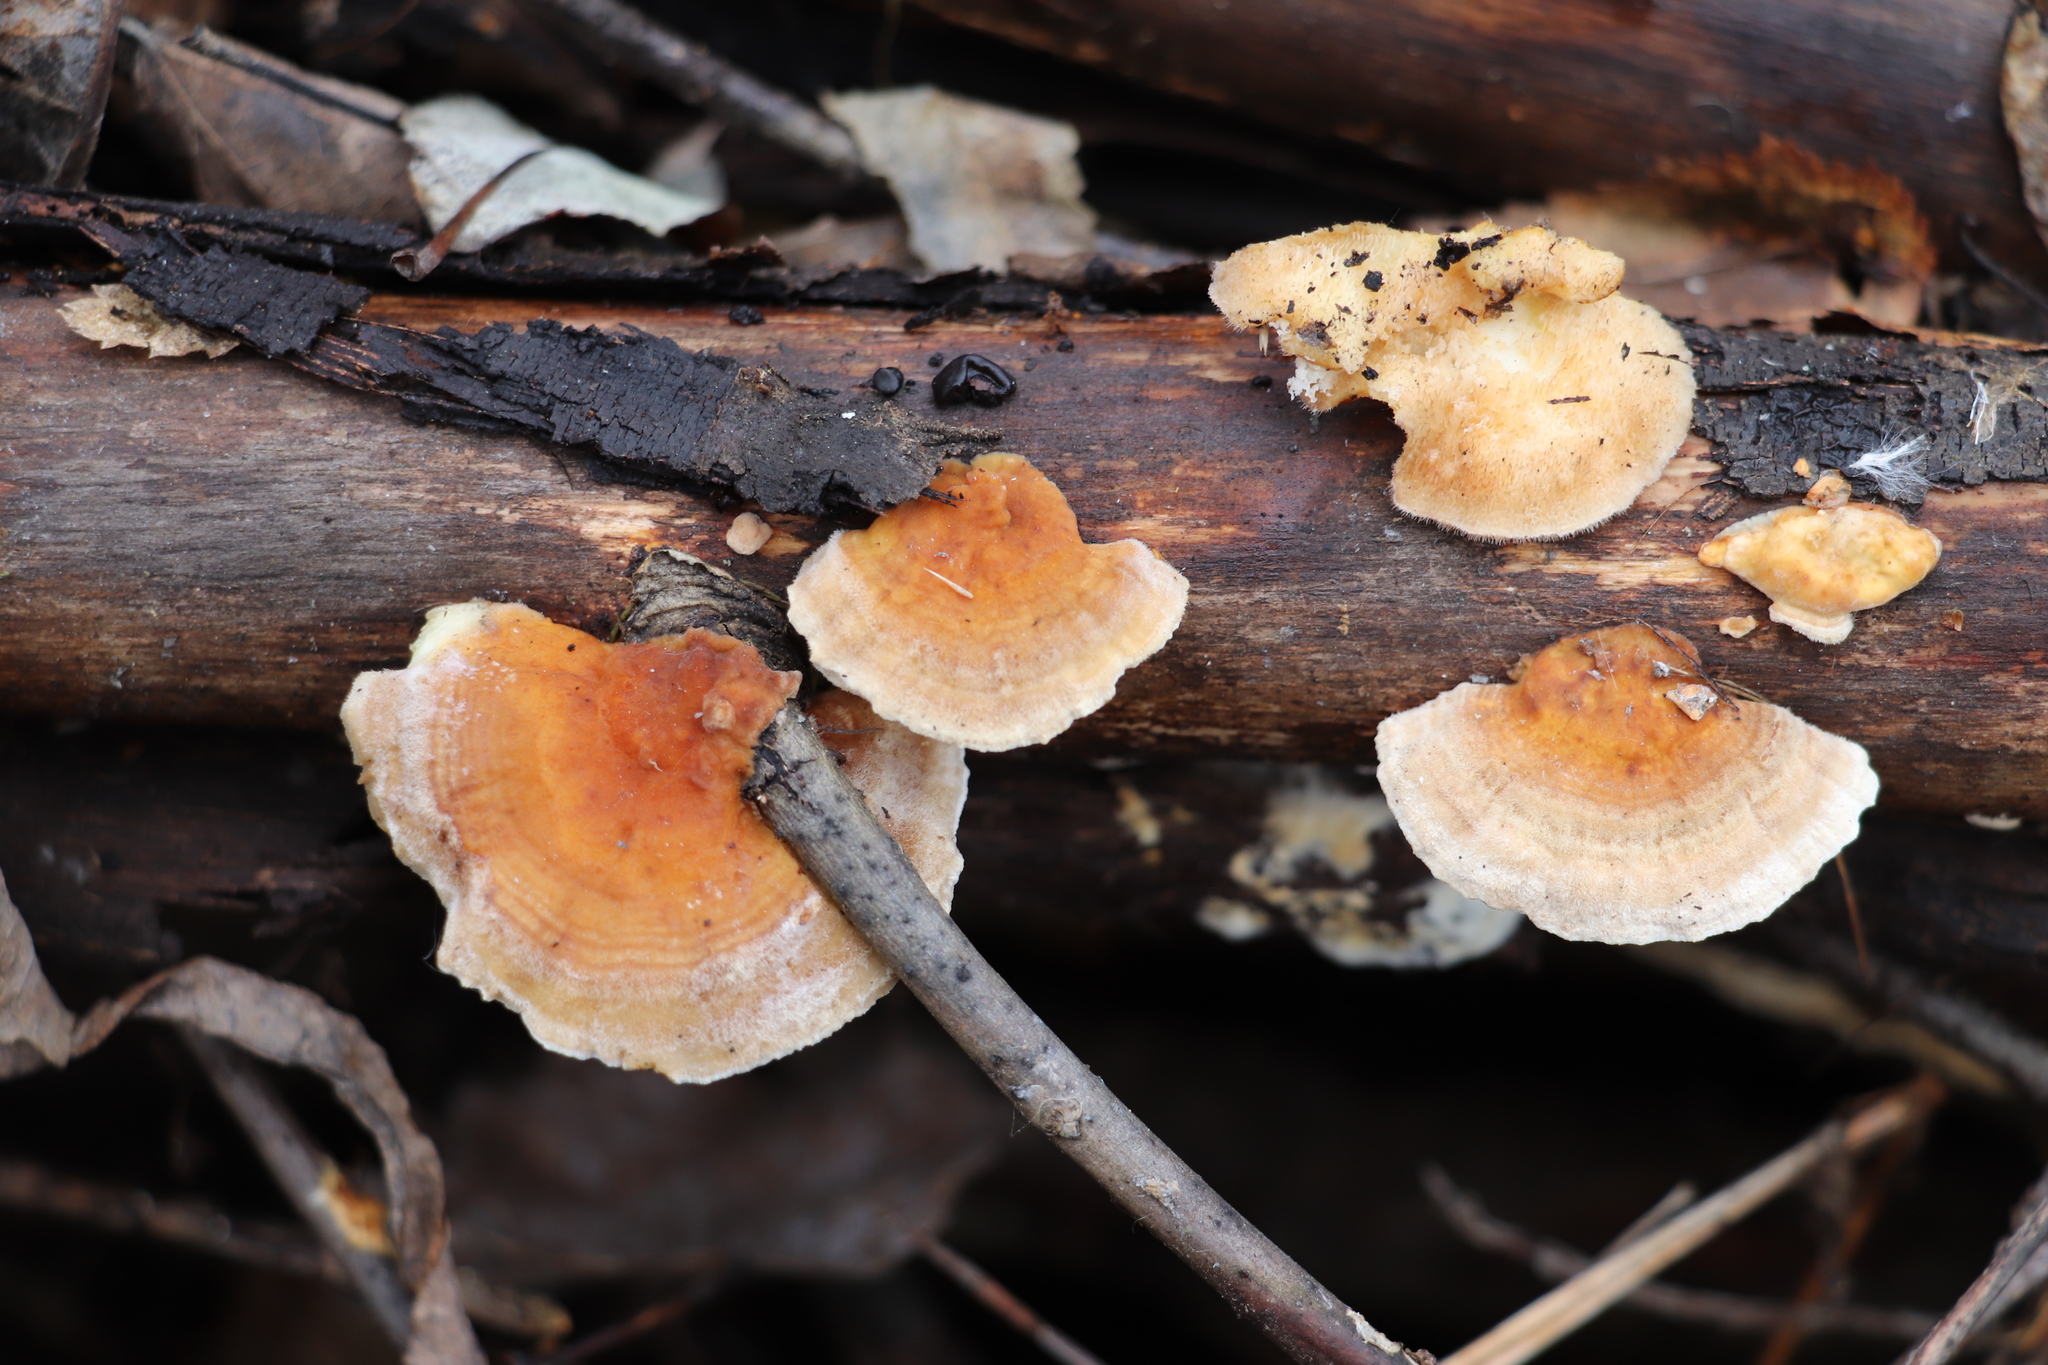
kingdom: Fungi
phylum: Basidiomycota
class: Agaricomycetes
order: Polyporales
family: Polyporaceae
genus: Trametes
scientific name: Trametes ochracea
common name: Ochre bracket
